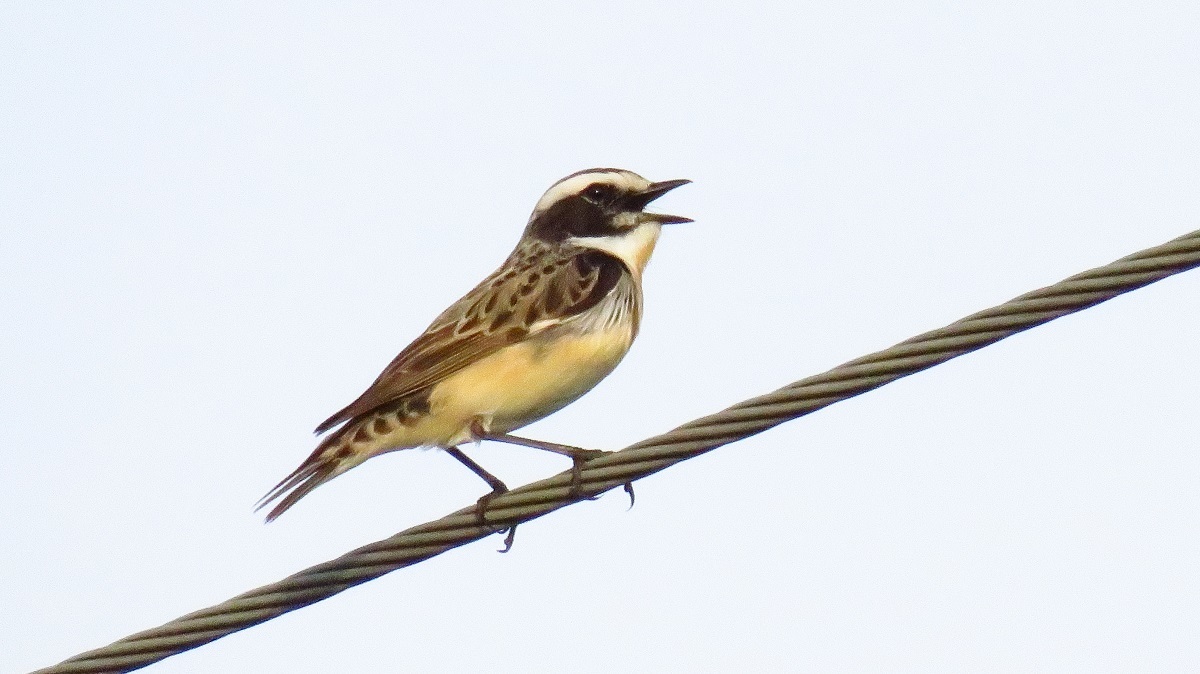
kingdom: Animalia
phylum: Chordata
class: Aves
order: Passeriformes
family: Muscicapidae
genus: Saxicola
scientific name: Saxicola rubetra
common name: Whinchat
